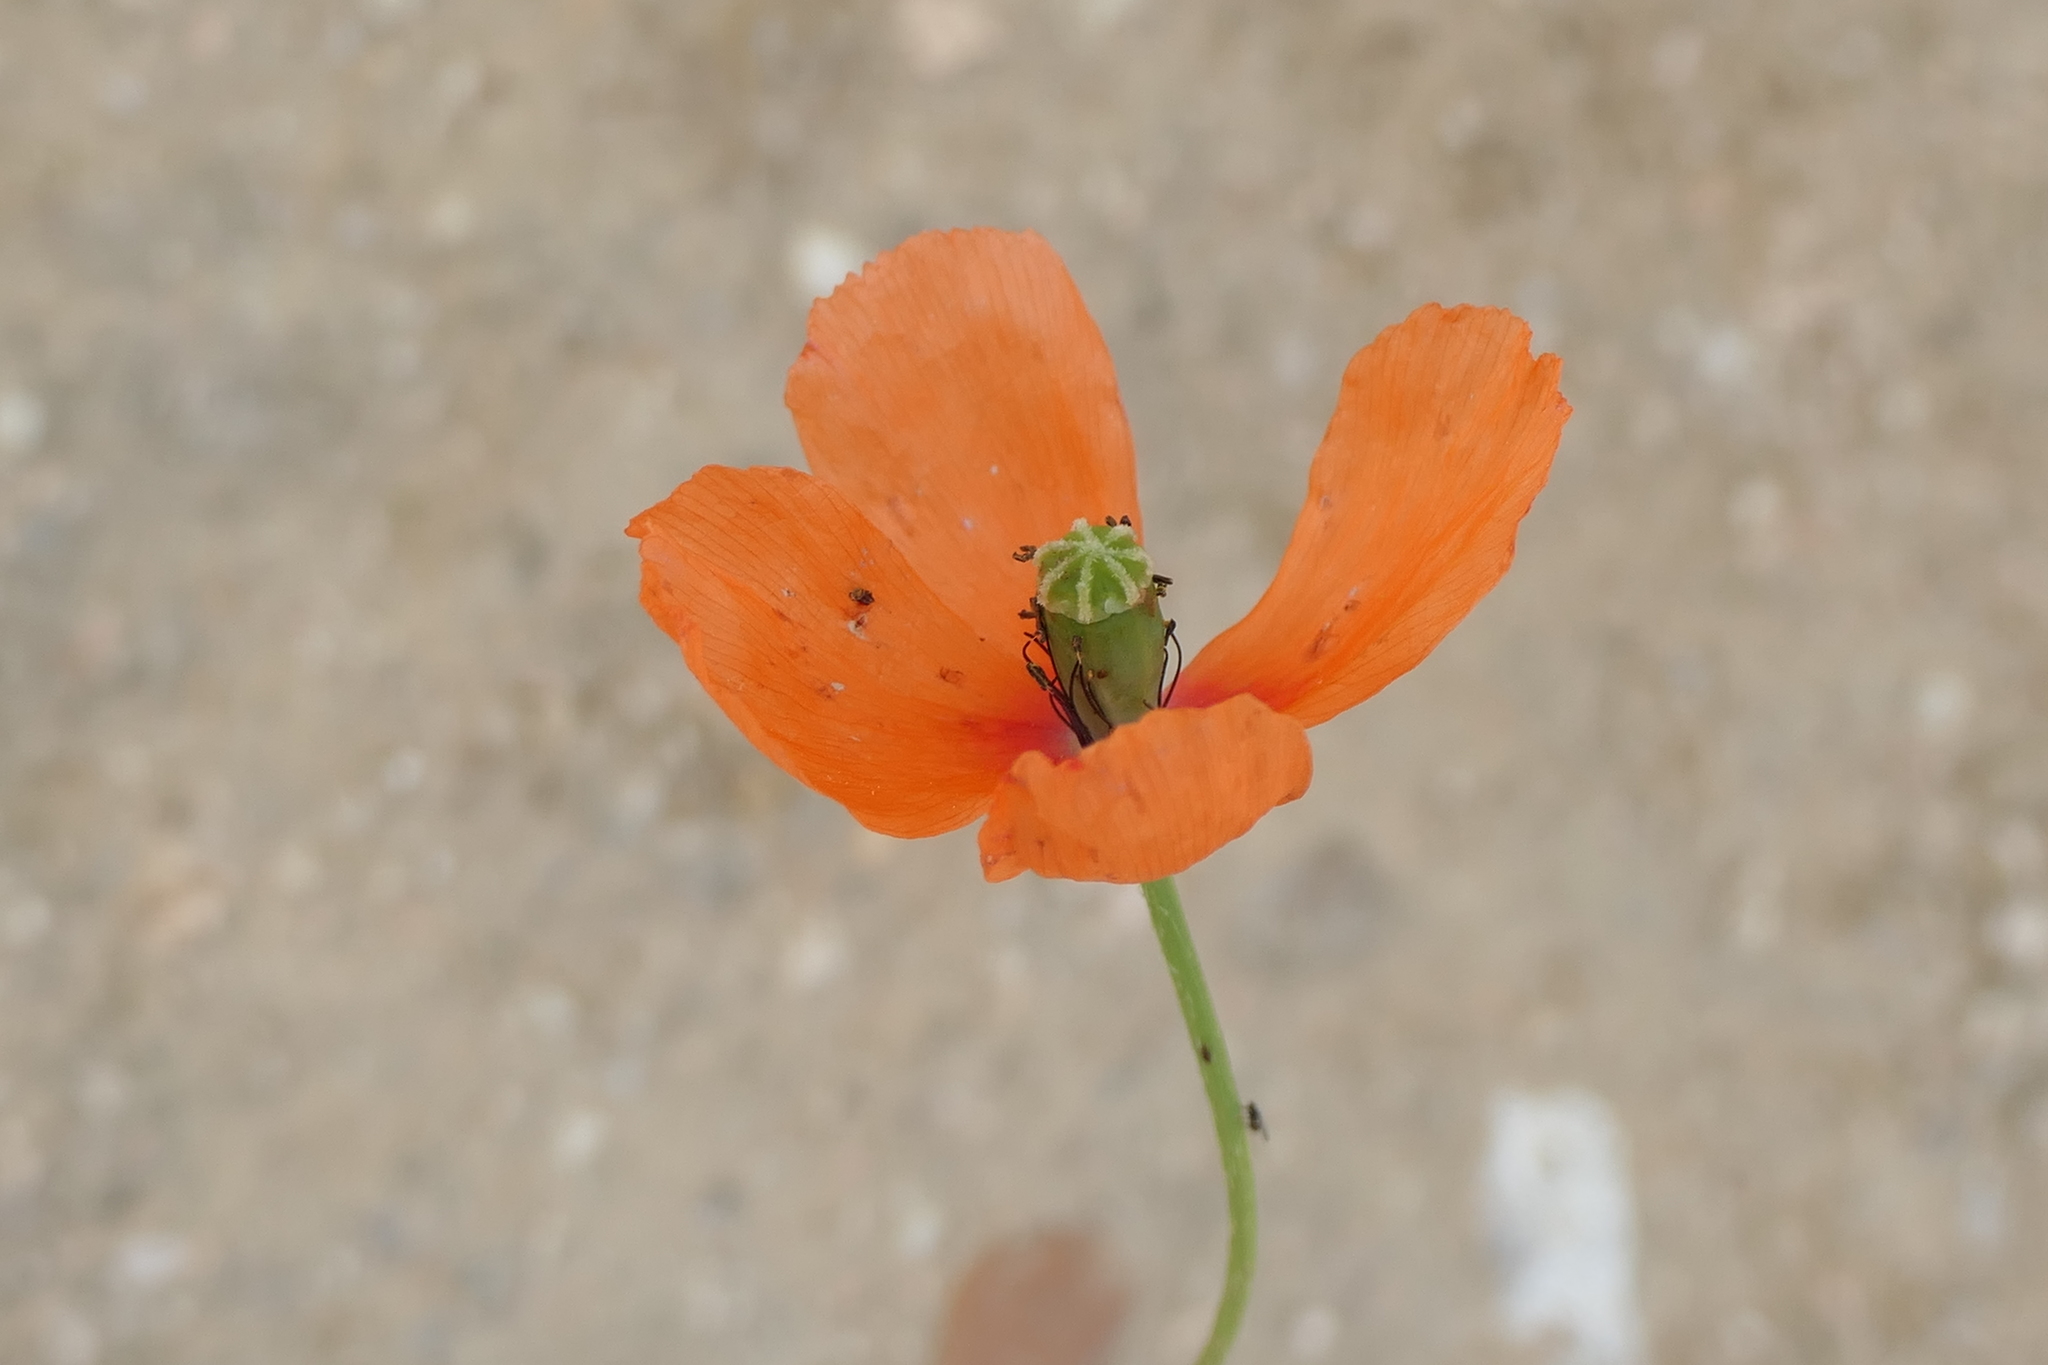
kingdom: Plantae
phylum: Tracheophyta
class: Magnoliopsida
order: Ranunculales
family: Papaveraceae
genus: Papaver
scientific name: Papaver dubium
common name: Long-headed poppy
